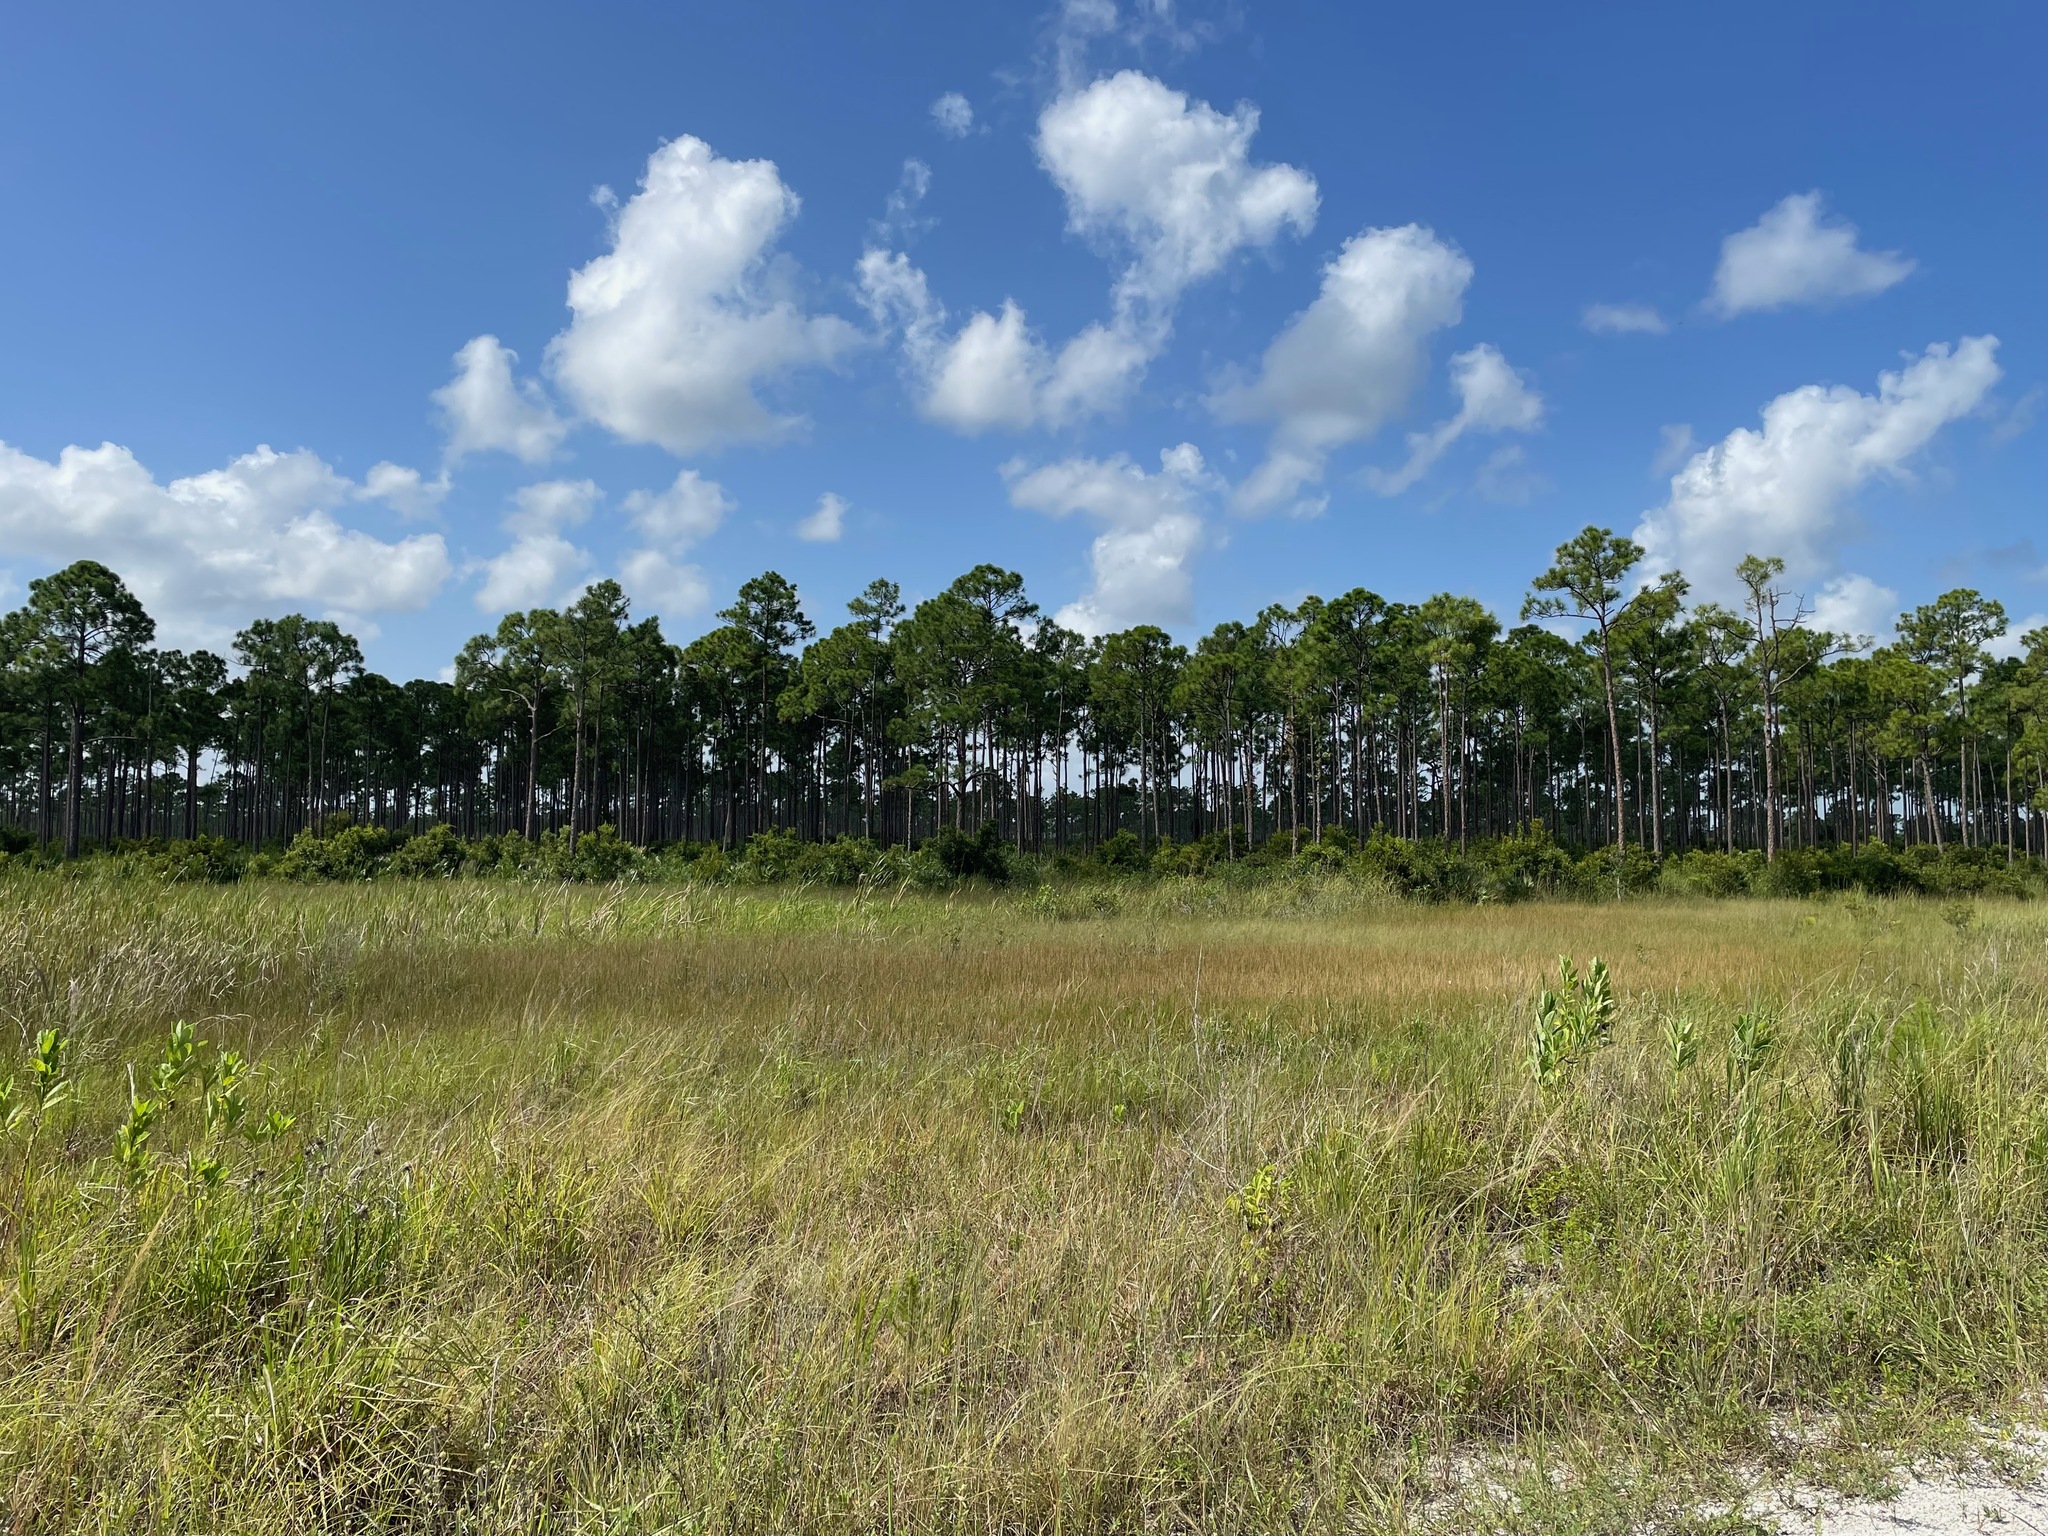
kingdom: Plantae
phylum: Tracheophyta
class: Pinopsida
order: Pinales
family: Pinaceae
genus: Pinus
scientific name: Pinus elliottii
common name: Slash pine
